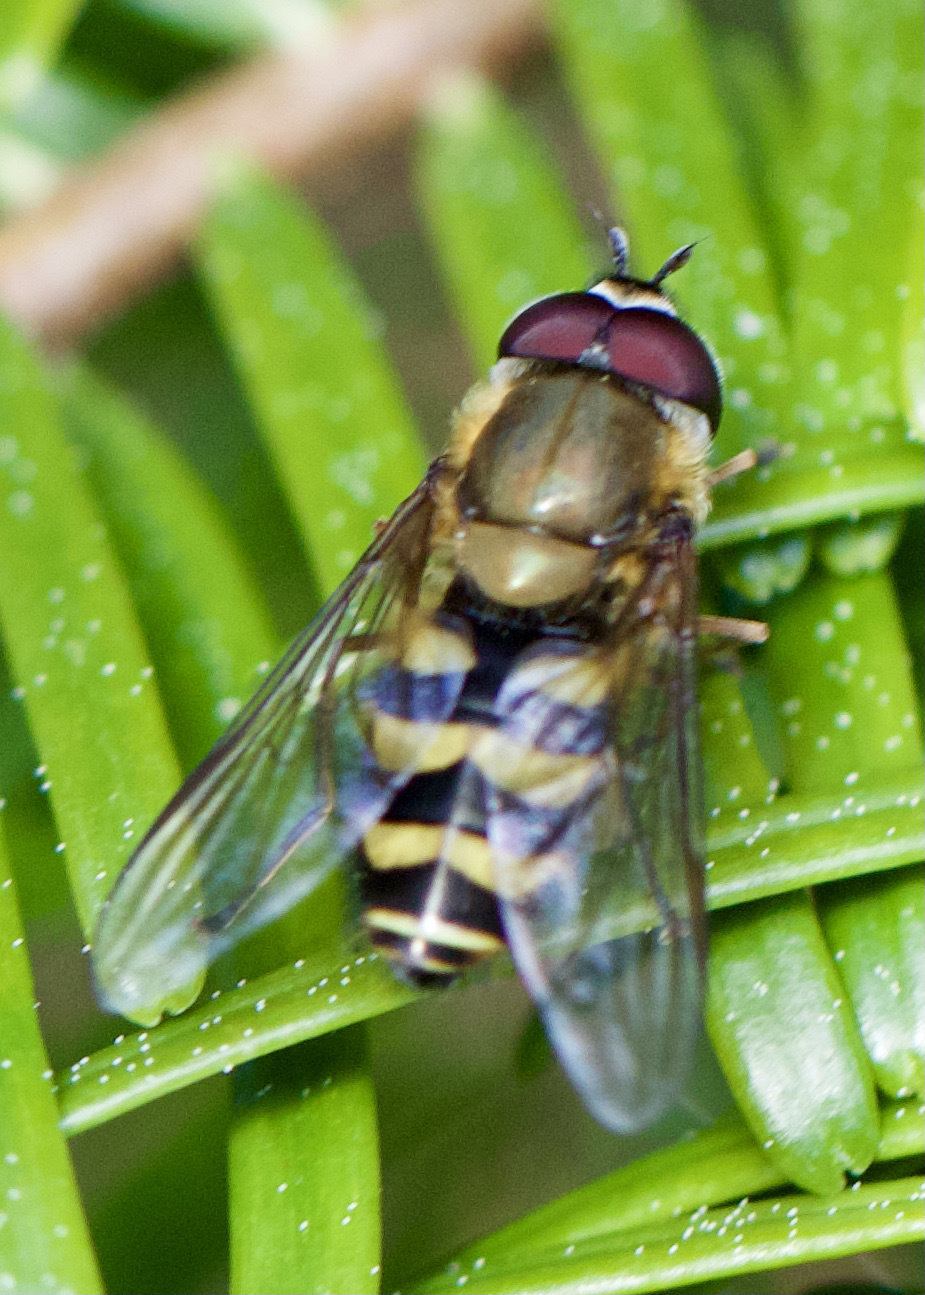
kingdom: Animalia
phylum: Arthropoda
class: Insecta
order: Diptera
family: Syrphidae
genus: Syrphus
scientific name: Syrphus
